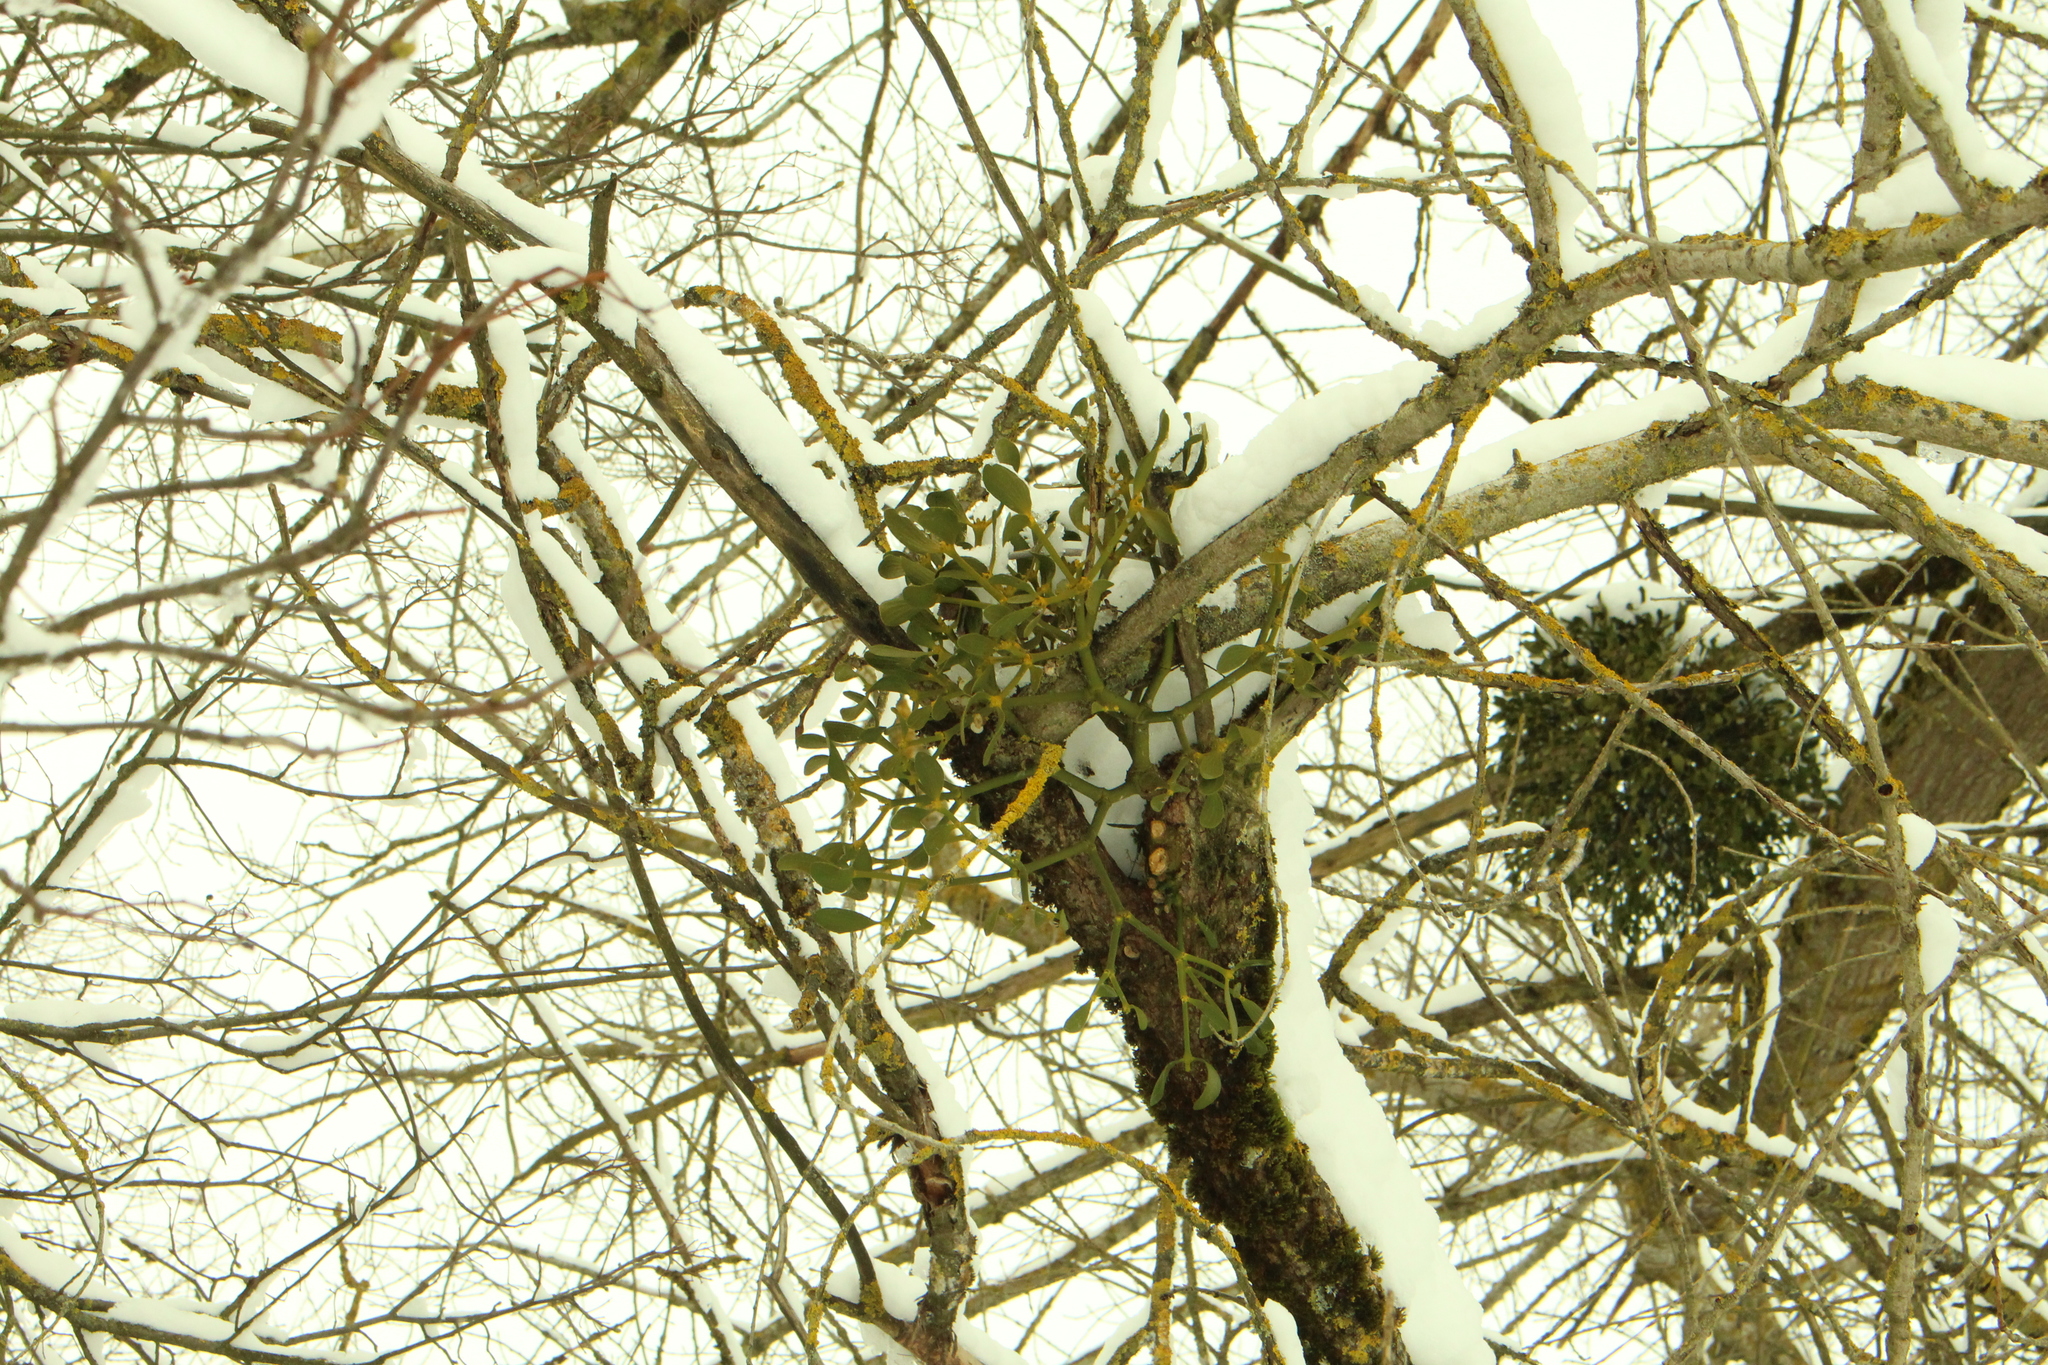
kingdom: Plantae
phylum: Tracheophyta
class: Magnoliopsida
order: Santalales
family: Viscaceae
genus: Viscum
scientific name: Viscum album
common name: Mistletoe
